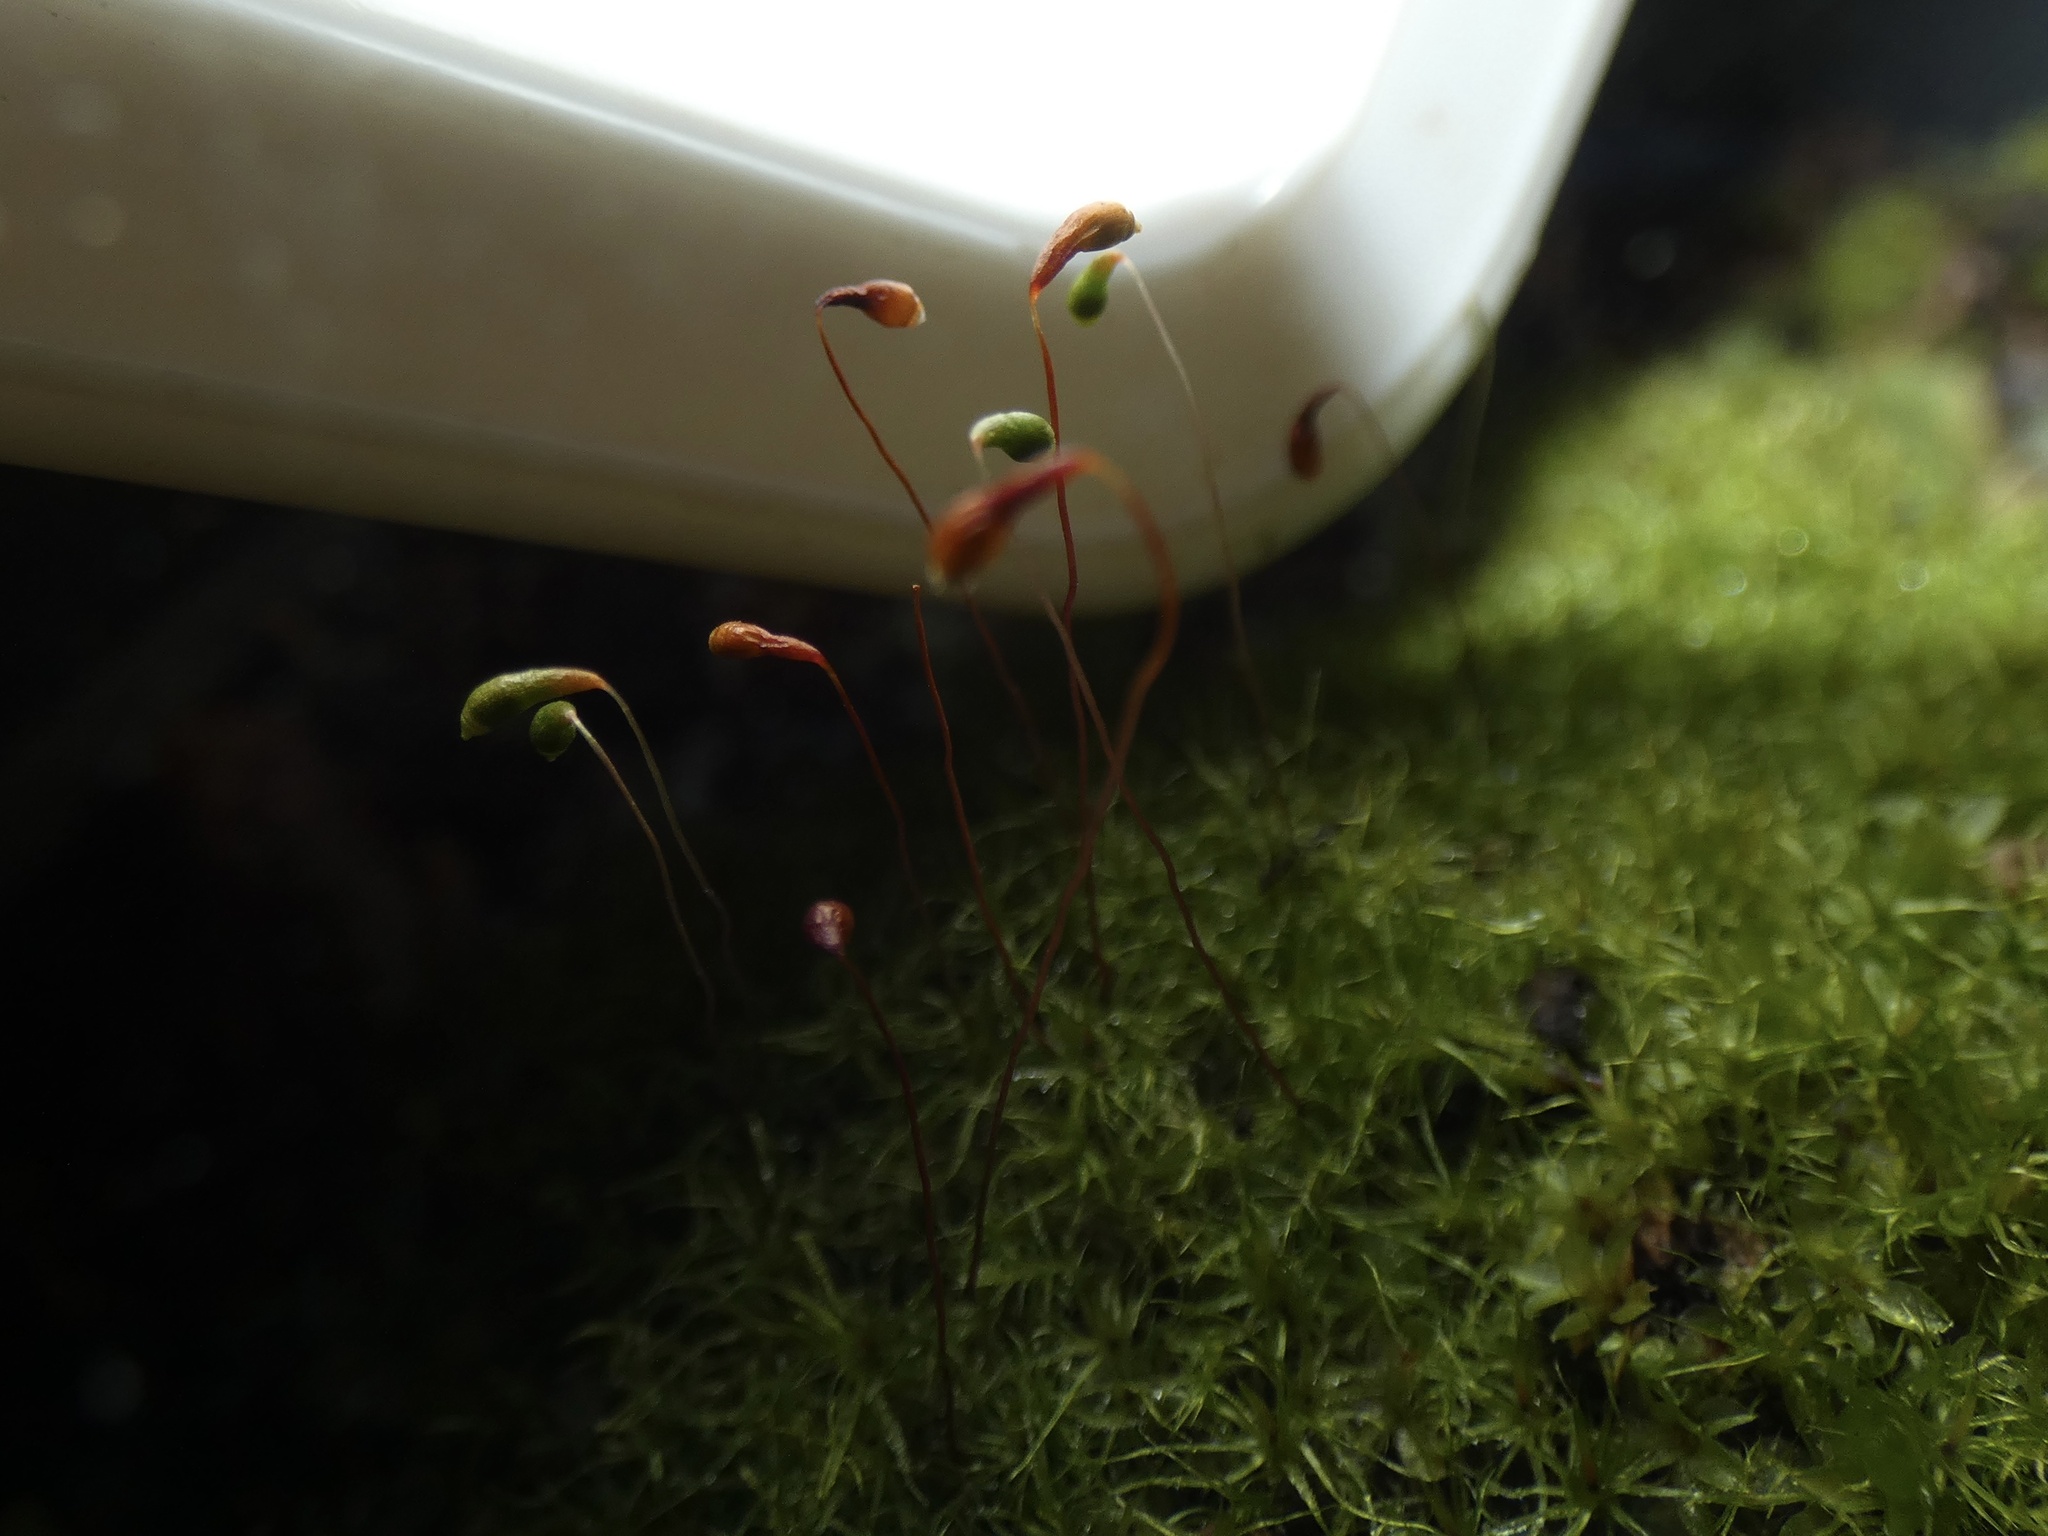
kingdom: Plantae
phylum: Bryophyta
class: Bryopsida
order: Funariales
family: Funariaceae
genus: Funaria
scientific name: Funaria hygrometrica
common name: Common cord moss
